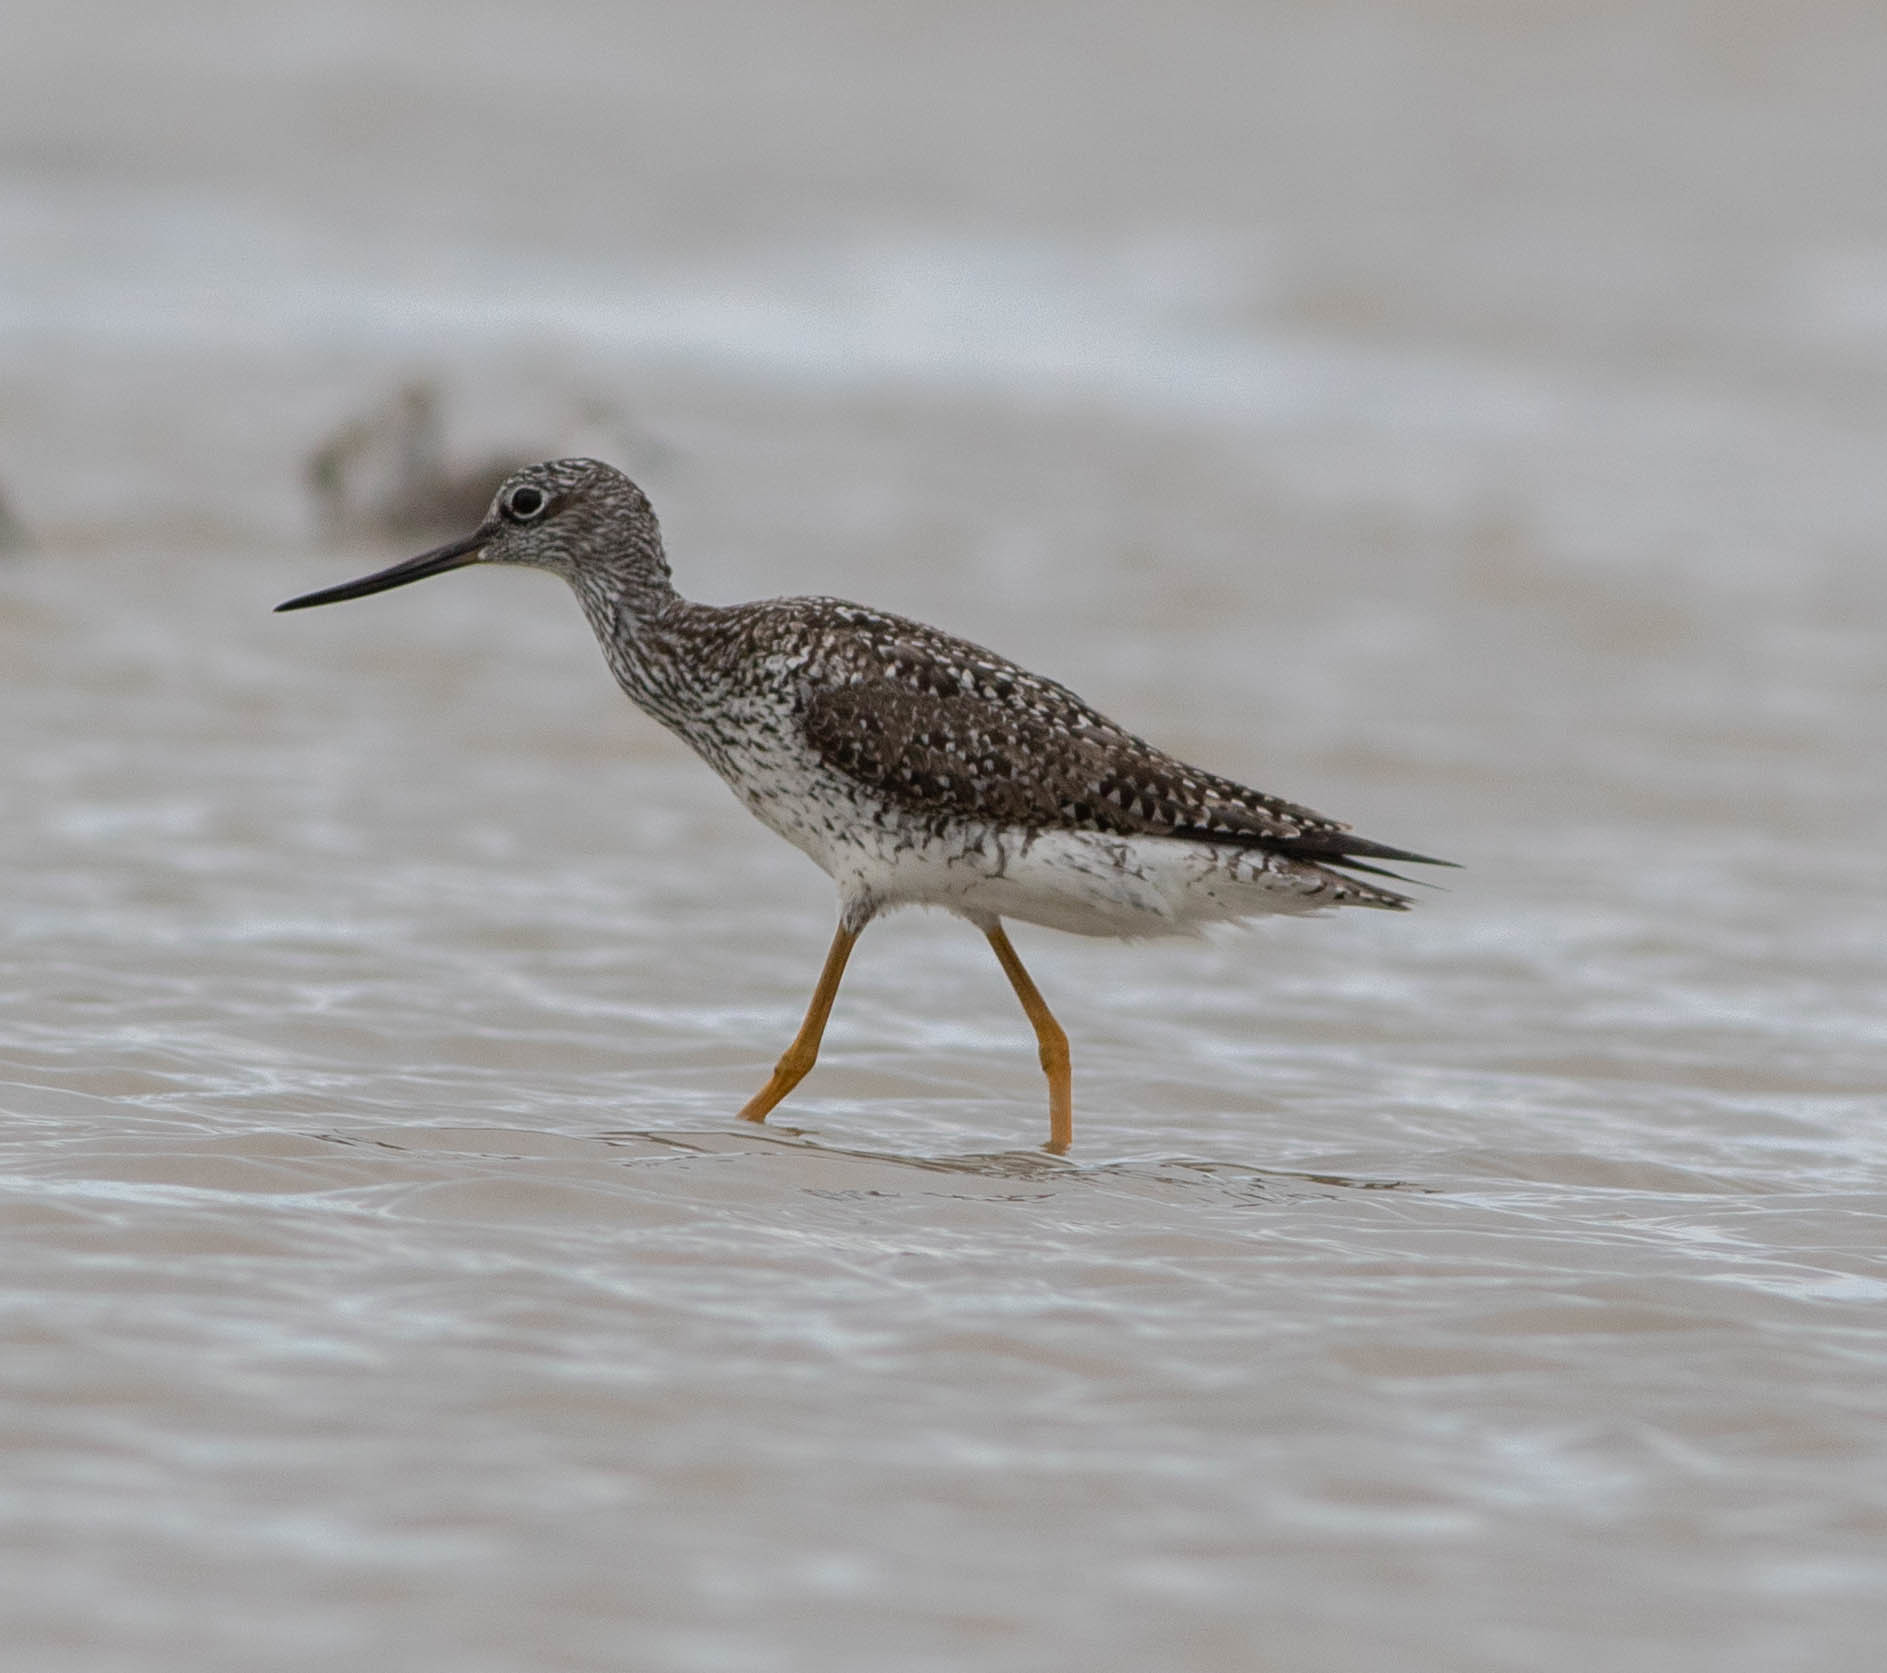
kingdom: Animalia
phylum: Chordata
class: Aves
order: Charadriiformes
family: Scolopacidae
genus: Tringa
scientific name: Tringa melanoleuca
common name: Greater yellowlegs
